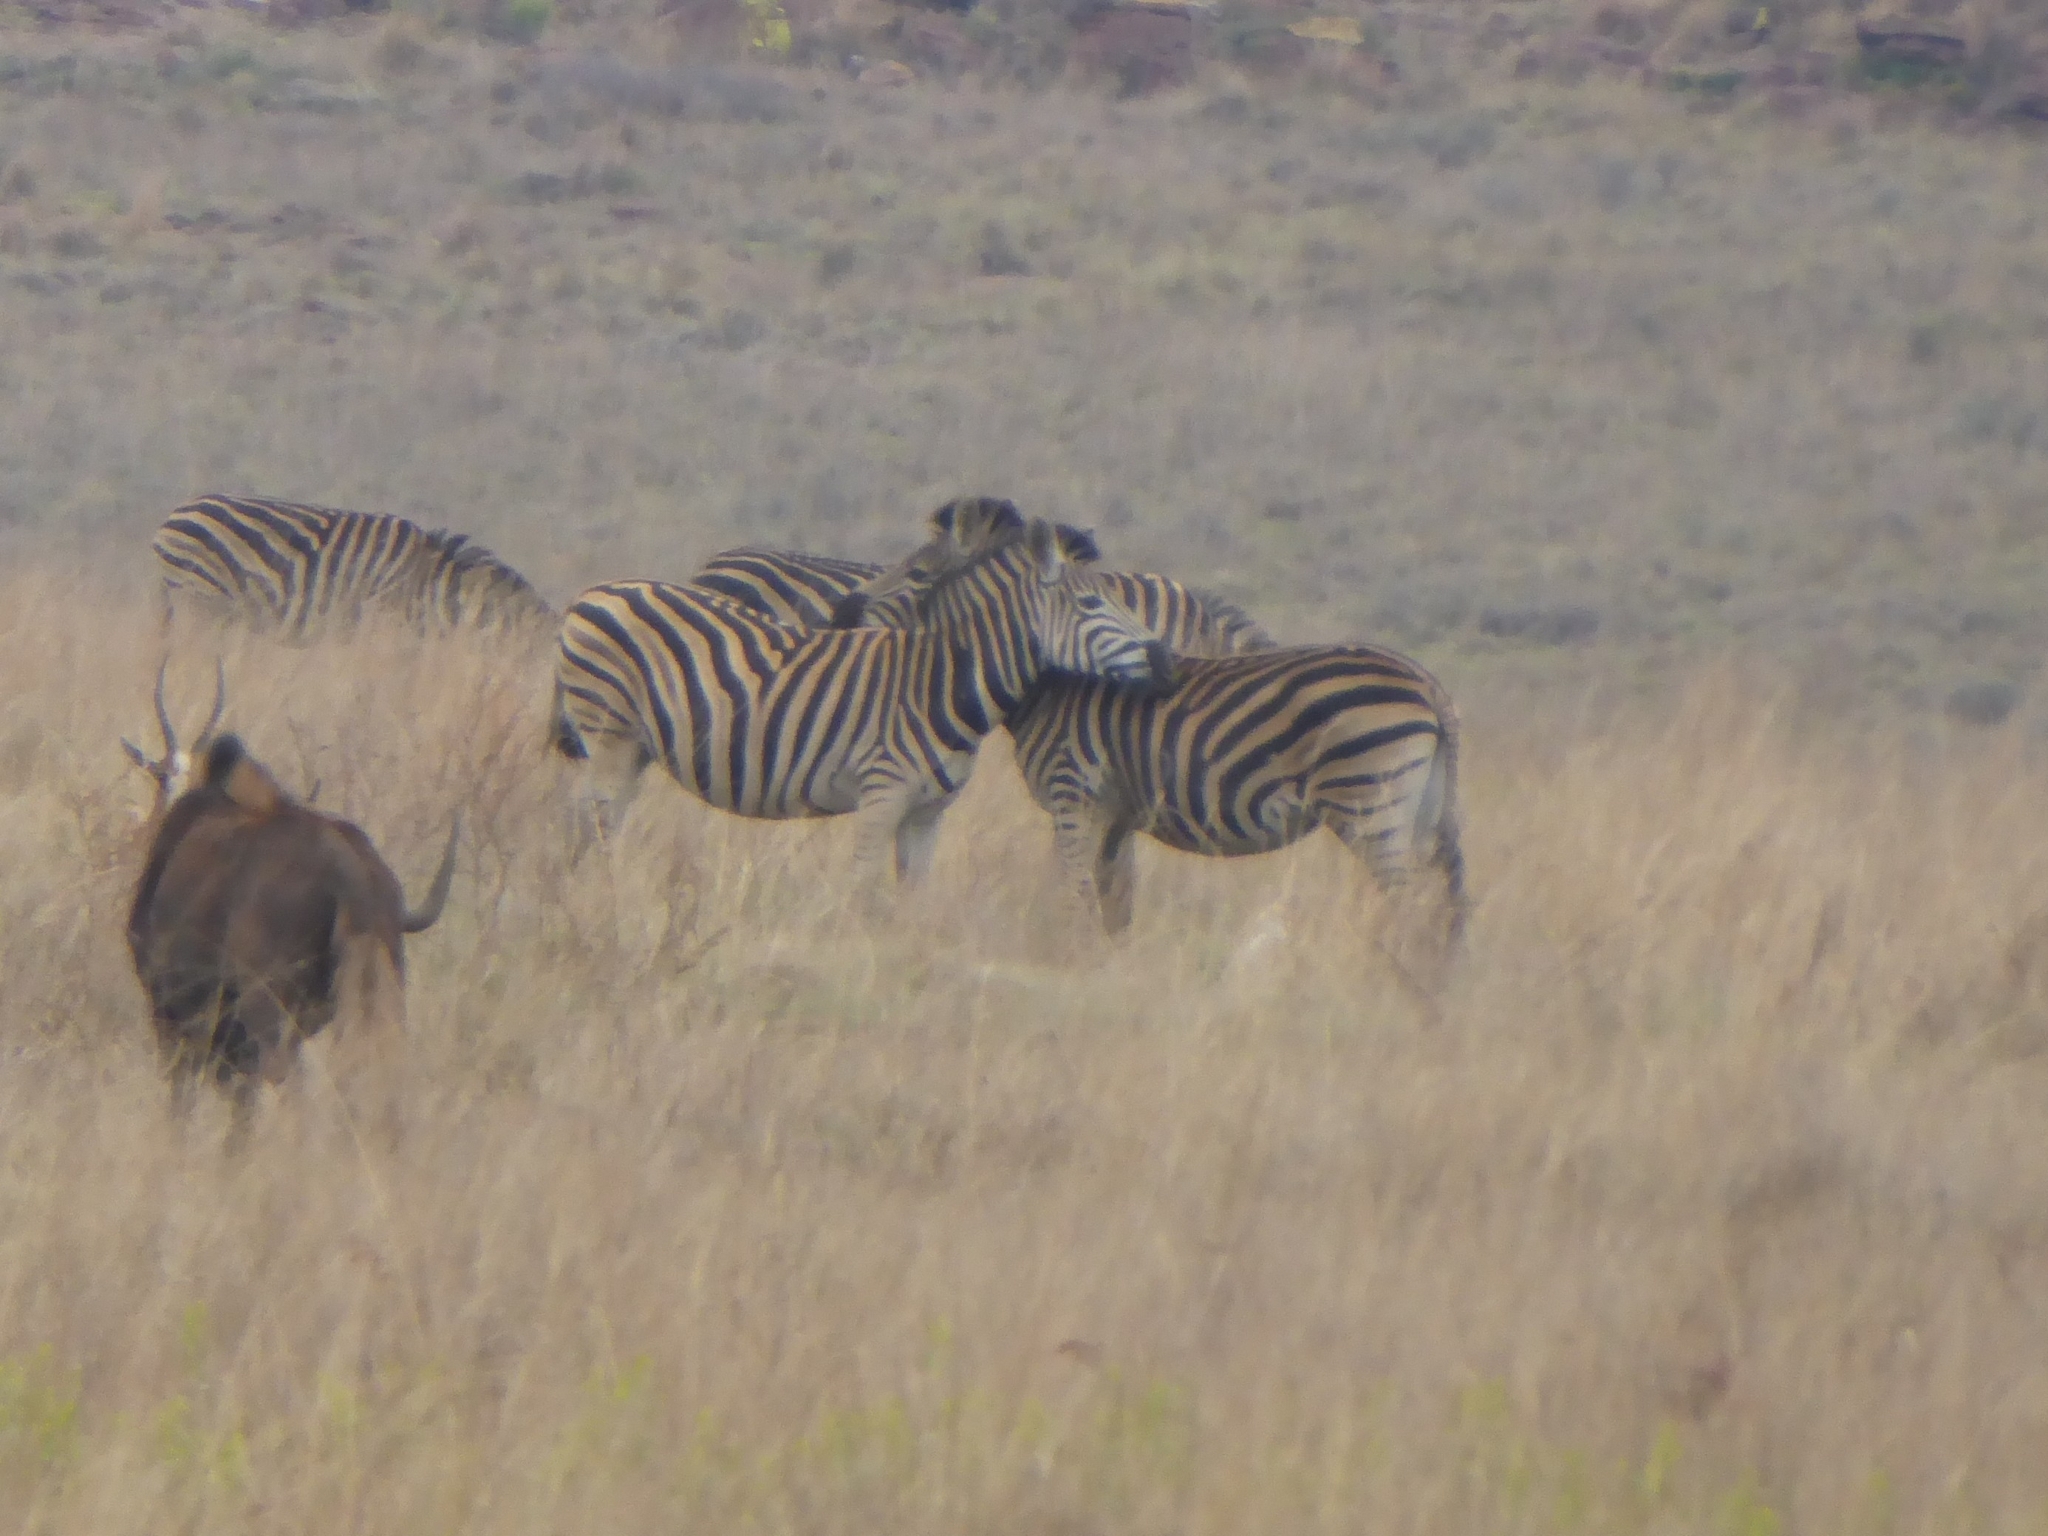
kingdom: Animalia
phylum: Chordata
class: Mammalia
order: Perissodactyla
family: Equidae
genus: Equus
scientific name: Equus quagga
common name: Plains zebra
